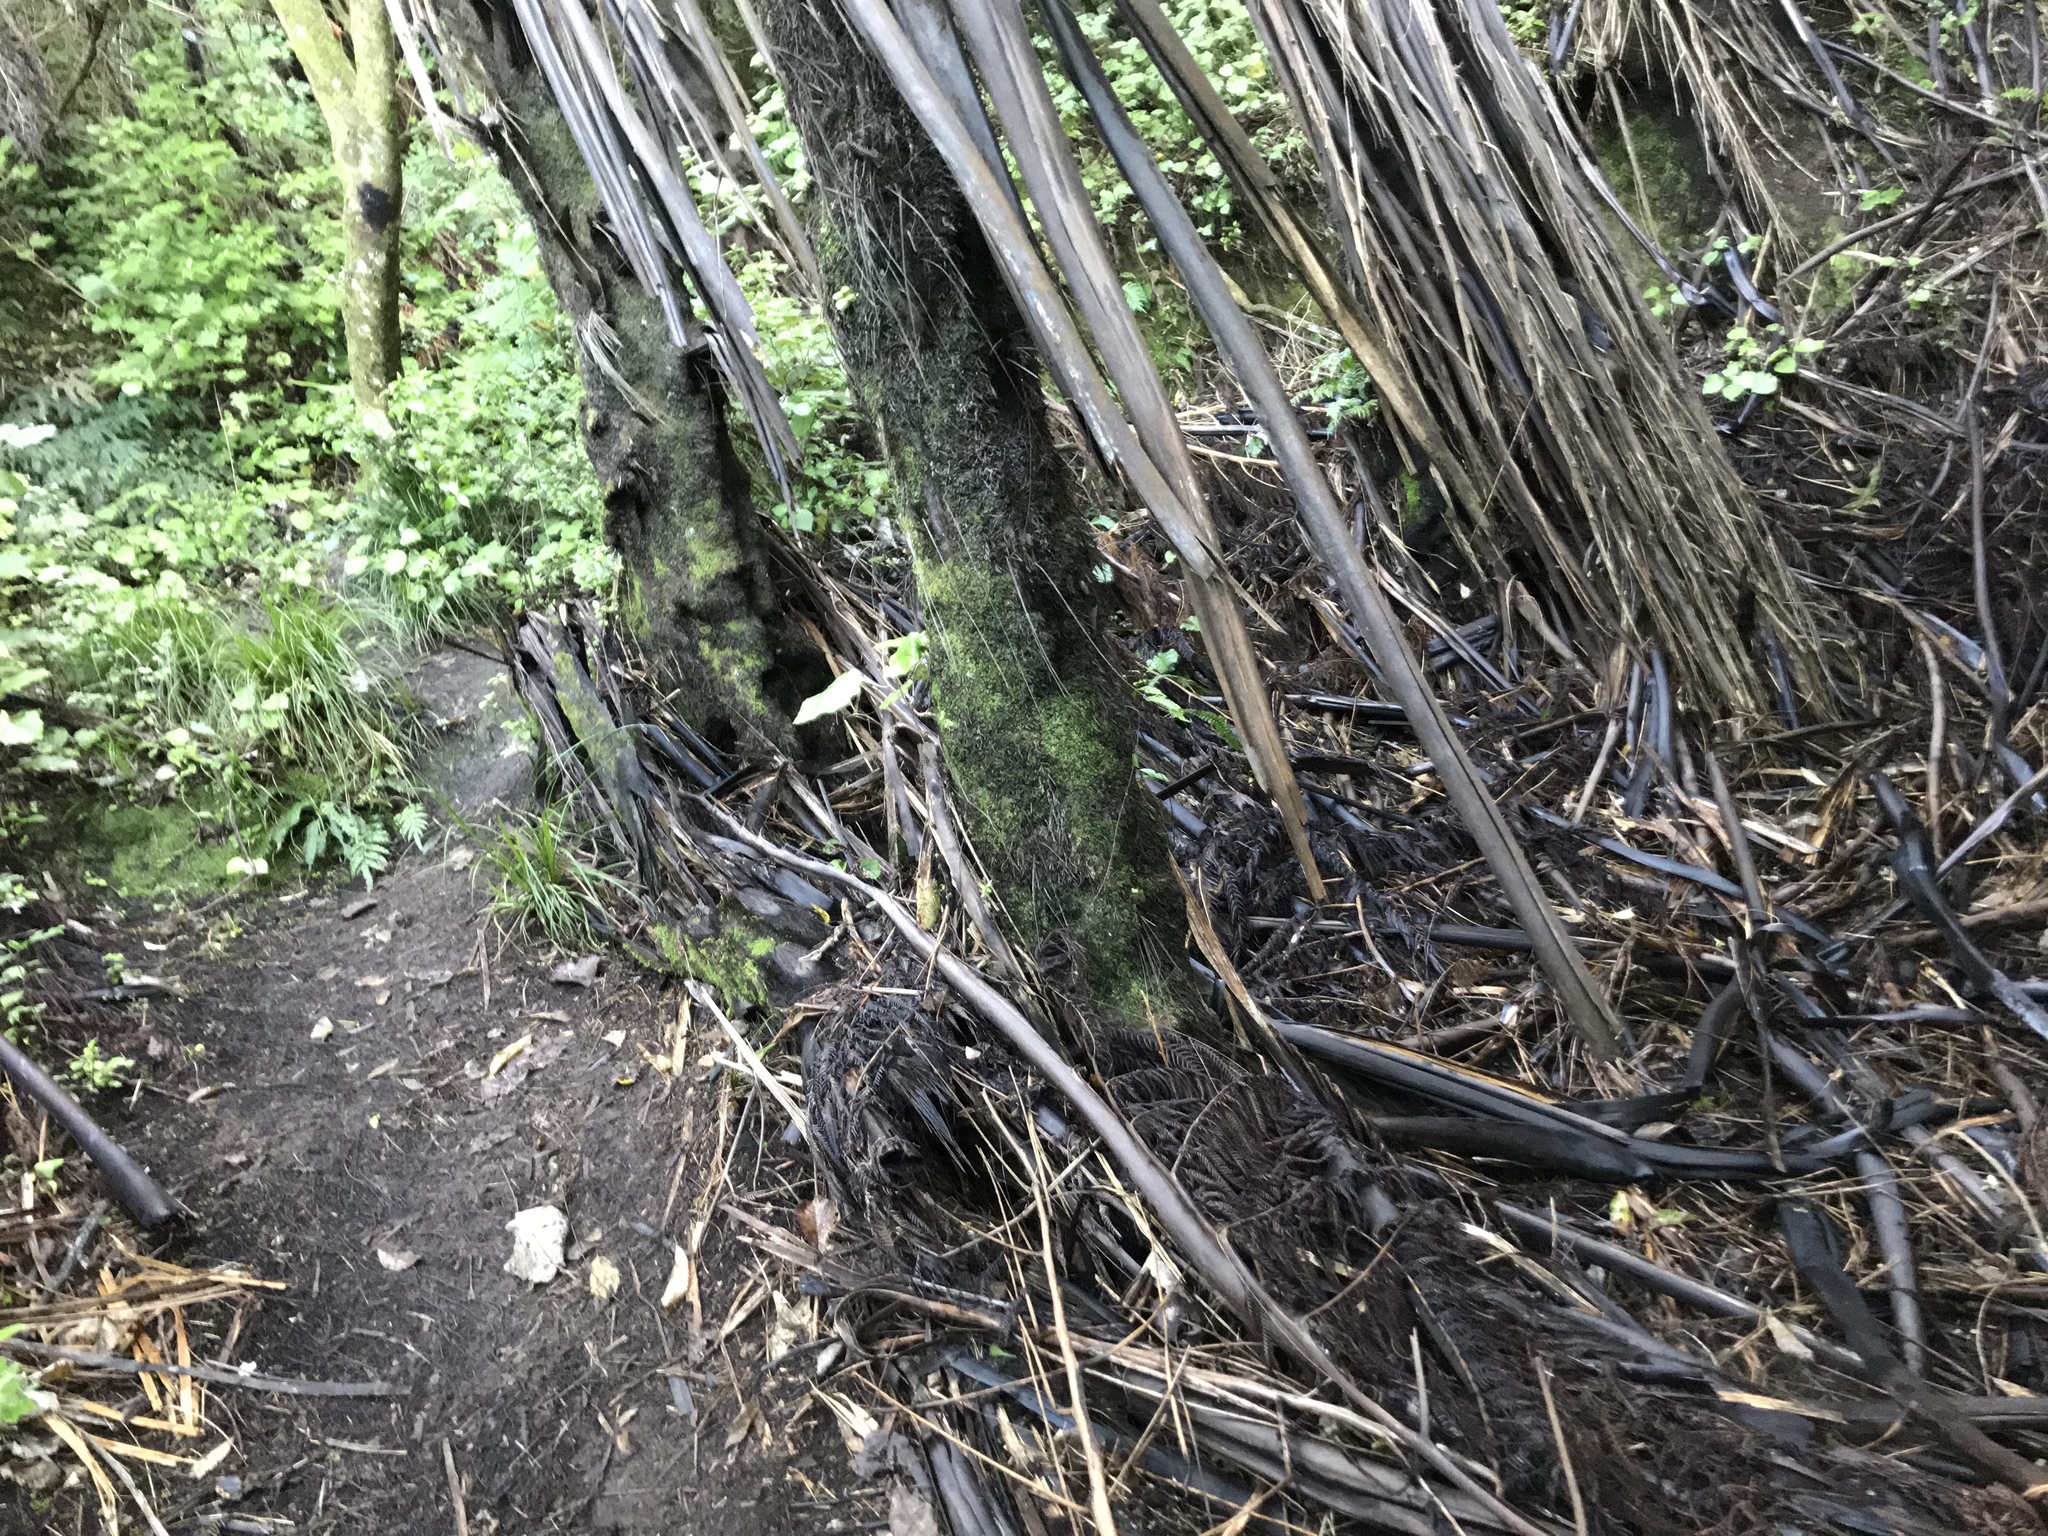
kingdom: Plantae
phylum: Tracheophyta
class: Polypodiopsida
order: Cyatheales
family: Cyatheaceae
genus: Sphaeropteris
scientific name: Sphaeropteris medullaris
